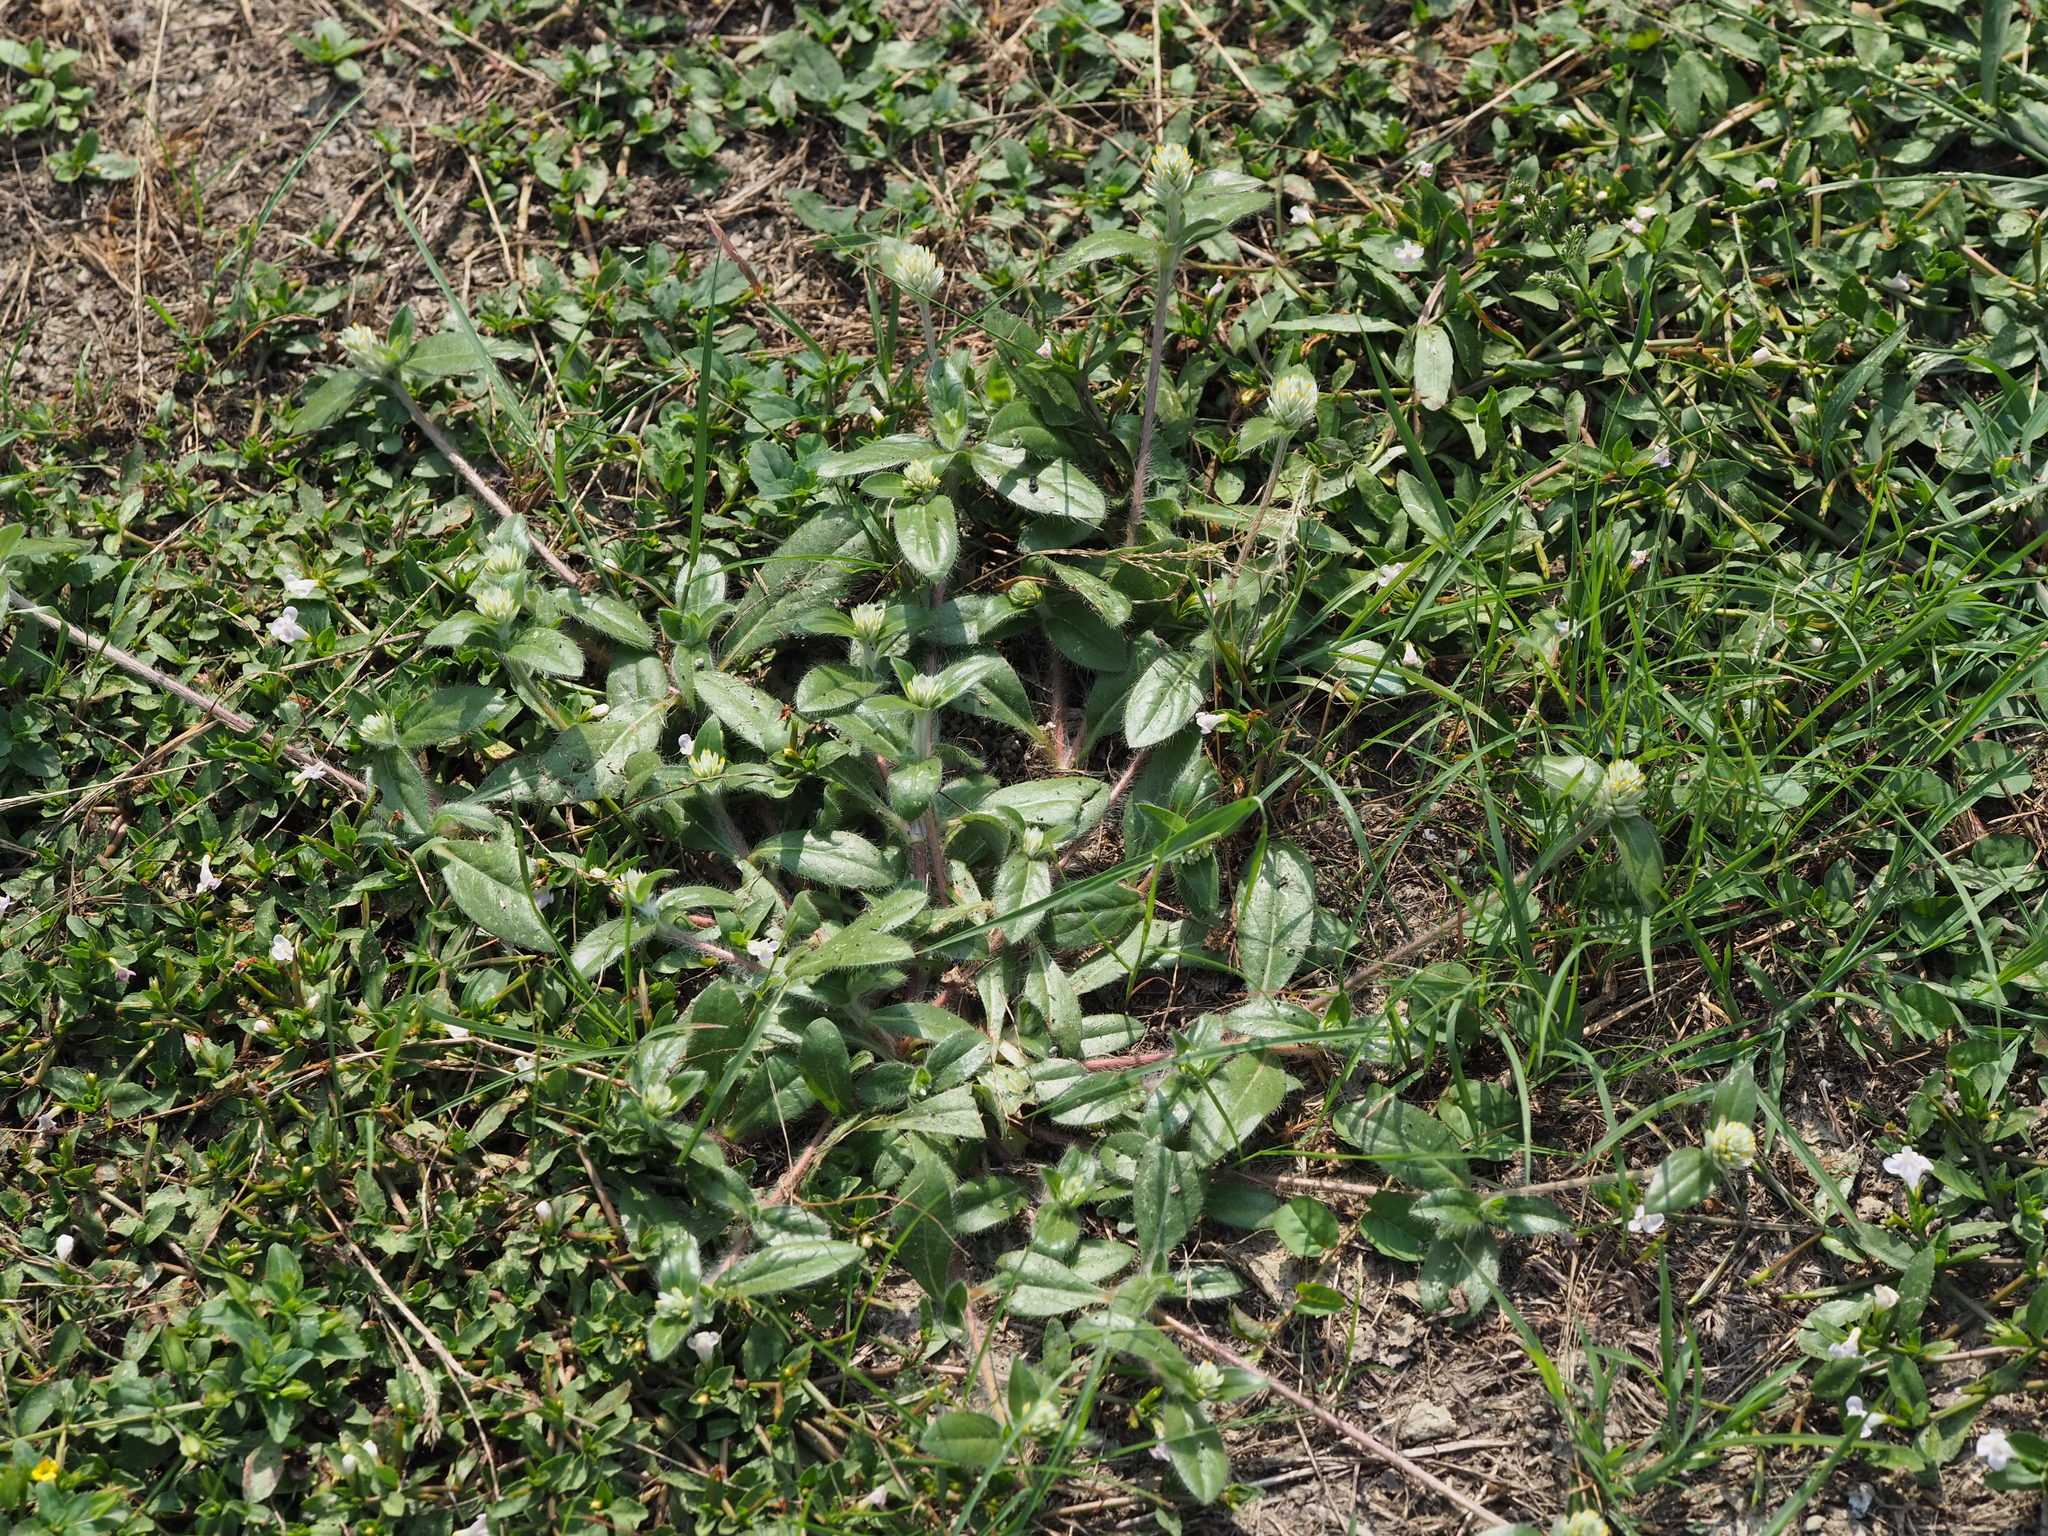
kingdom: Plantae
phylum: Tracheophyta
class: Magnoliopsida
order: Caryophyllales
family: Amaranthaceae
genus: Gomphrena
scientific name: Gomphrena celosioides
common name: Gomphrena-weed
